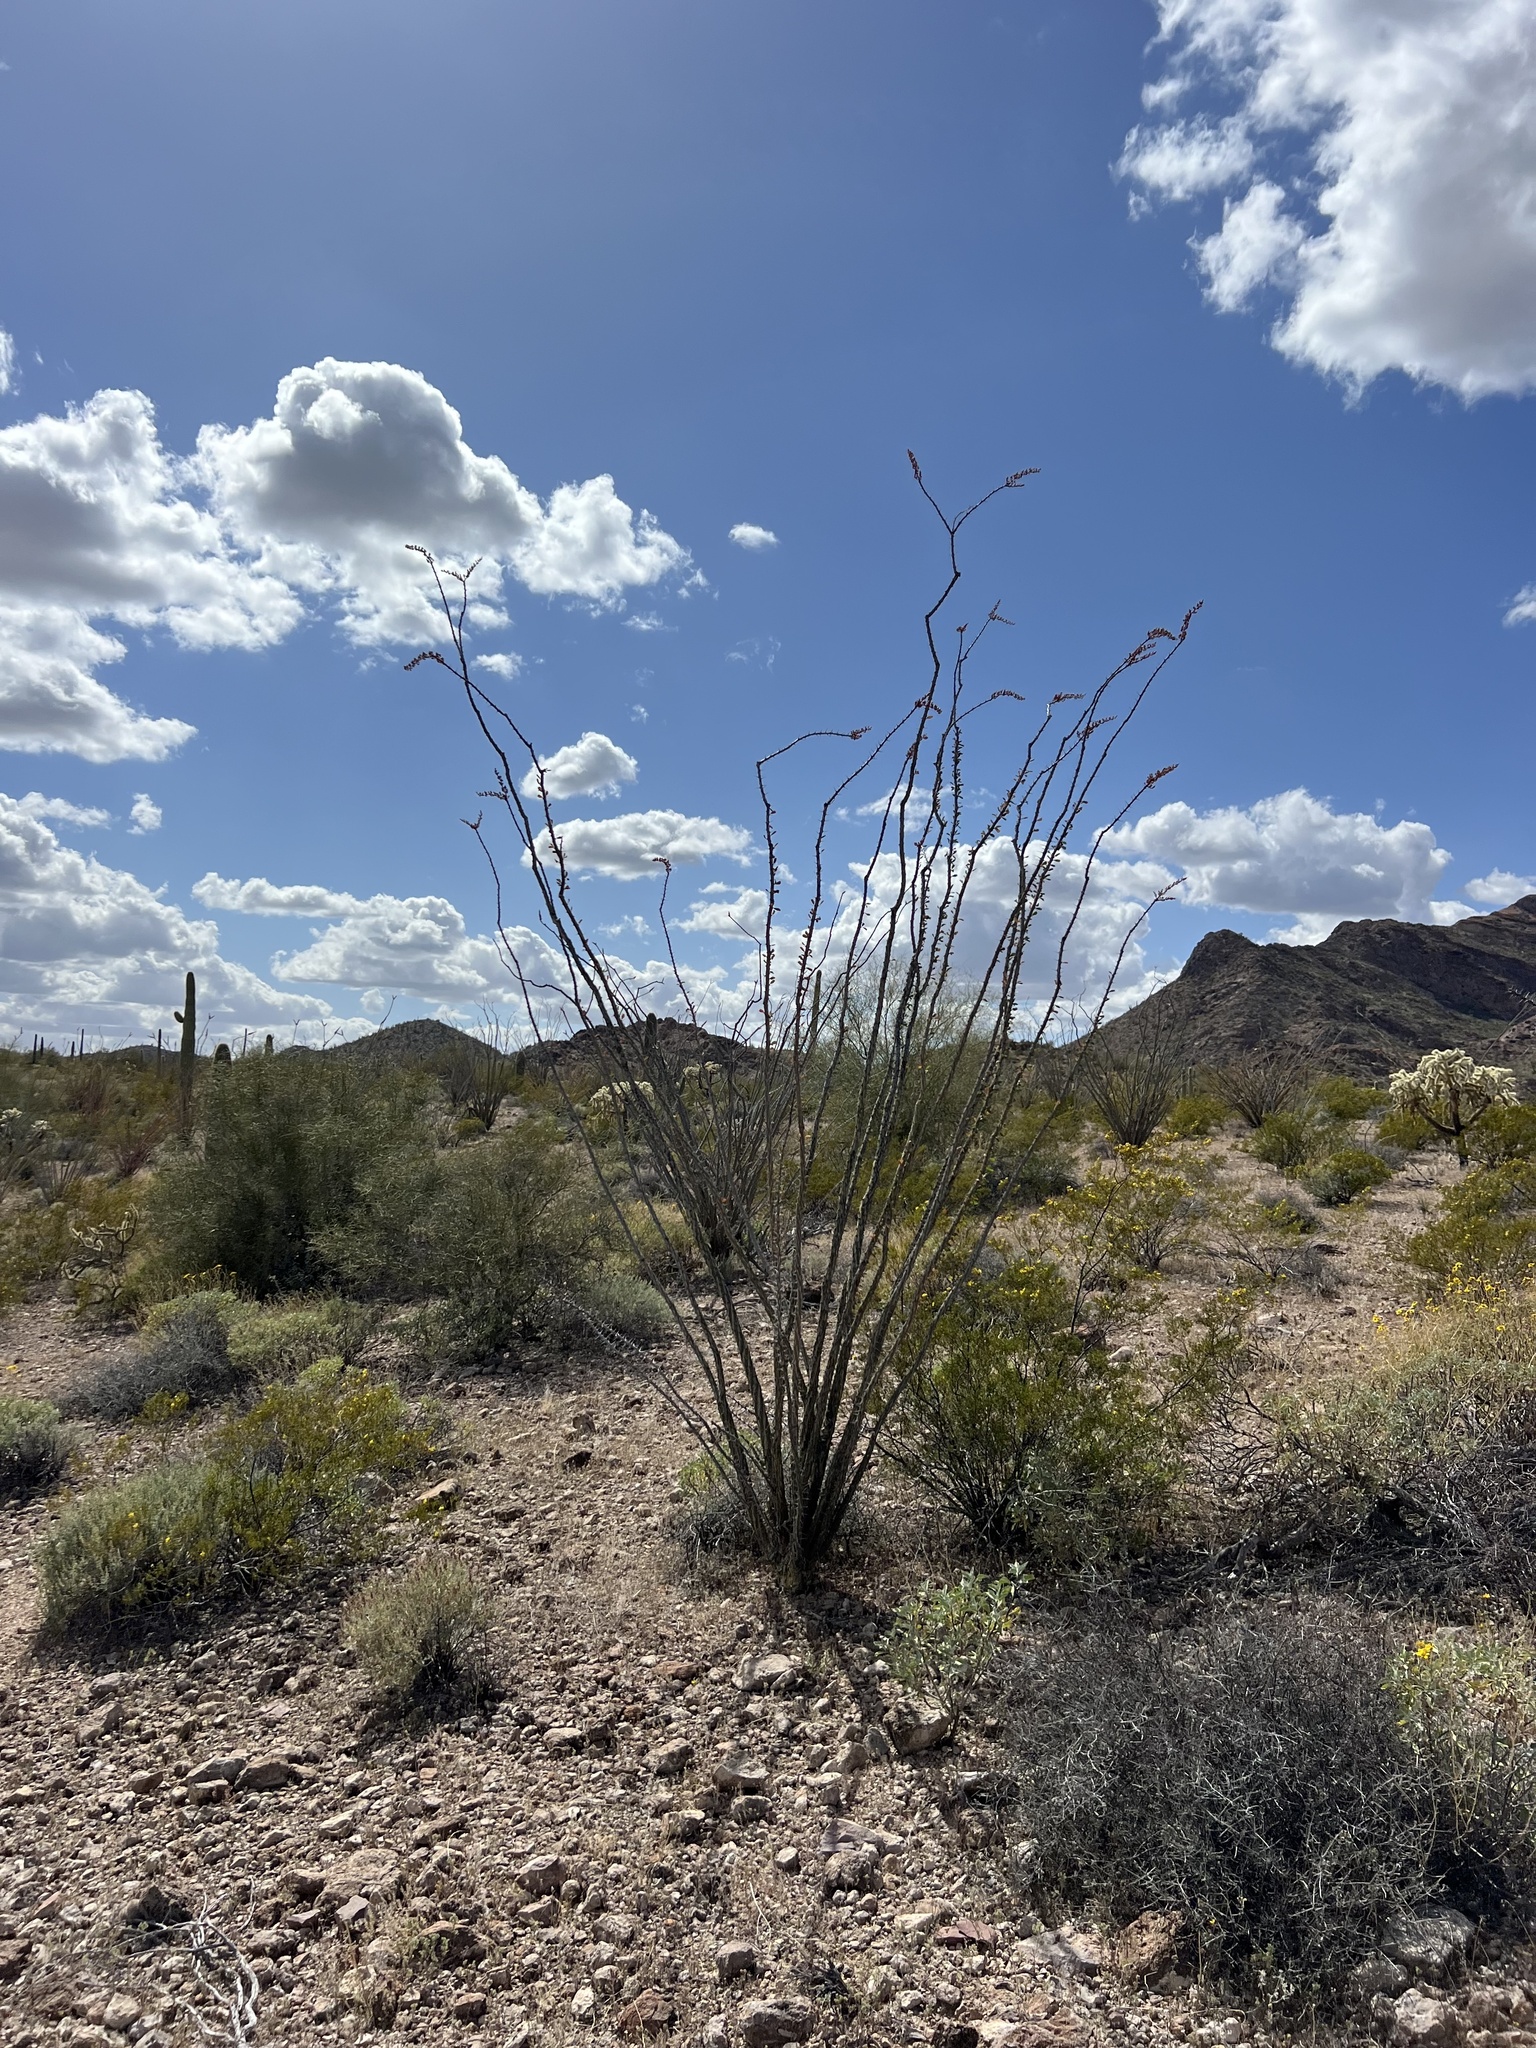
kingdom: Plantae
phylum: Tracheophyta
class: Magnoliopsida
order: Ericales
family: Fouquieriaceae
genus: Fouquieria
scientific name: Fouquieria splendens
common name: Vine-cactus
